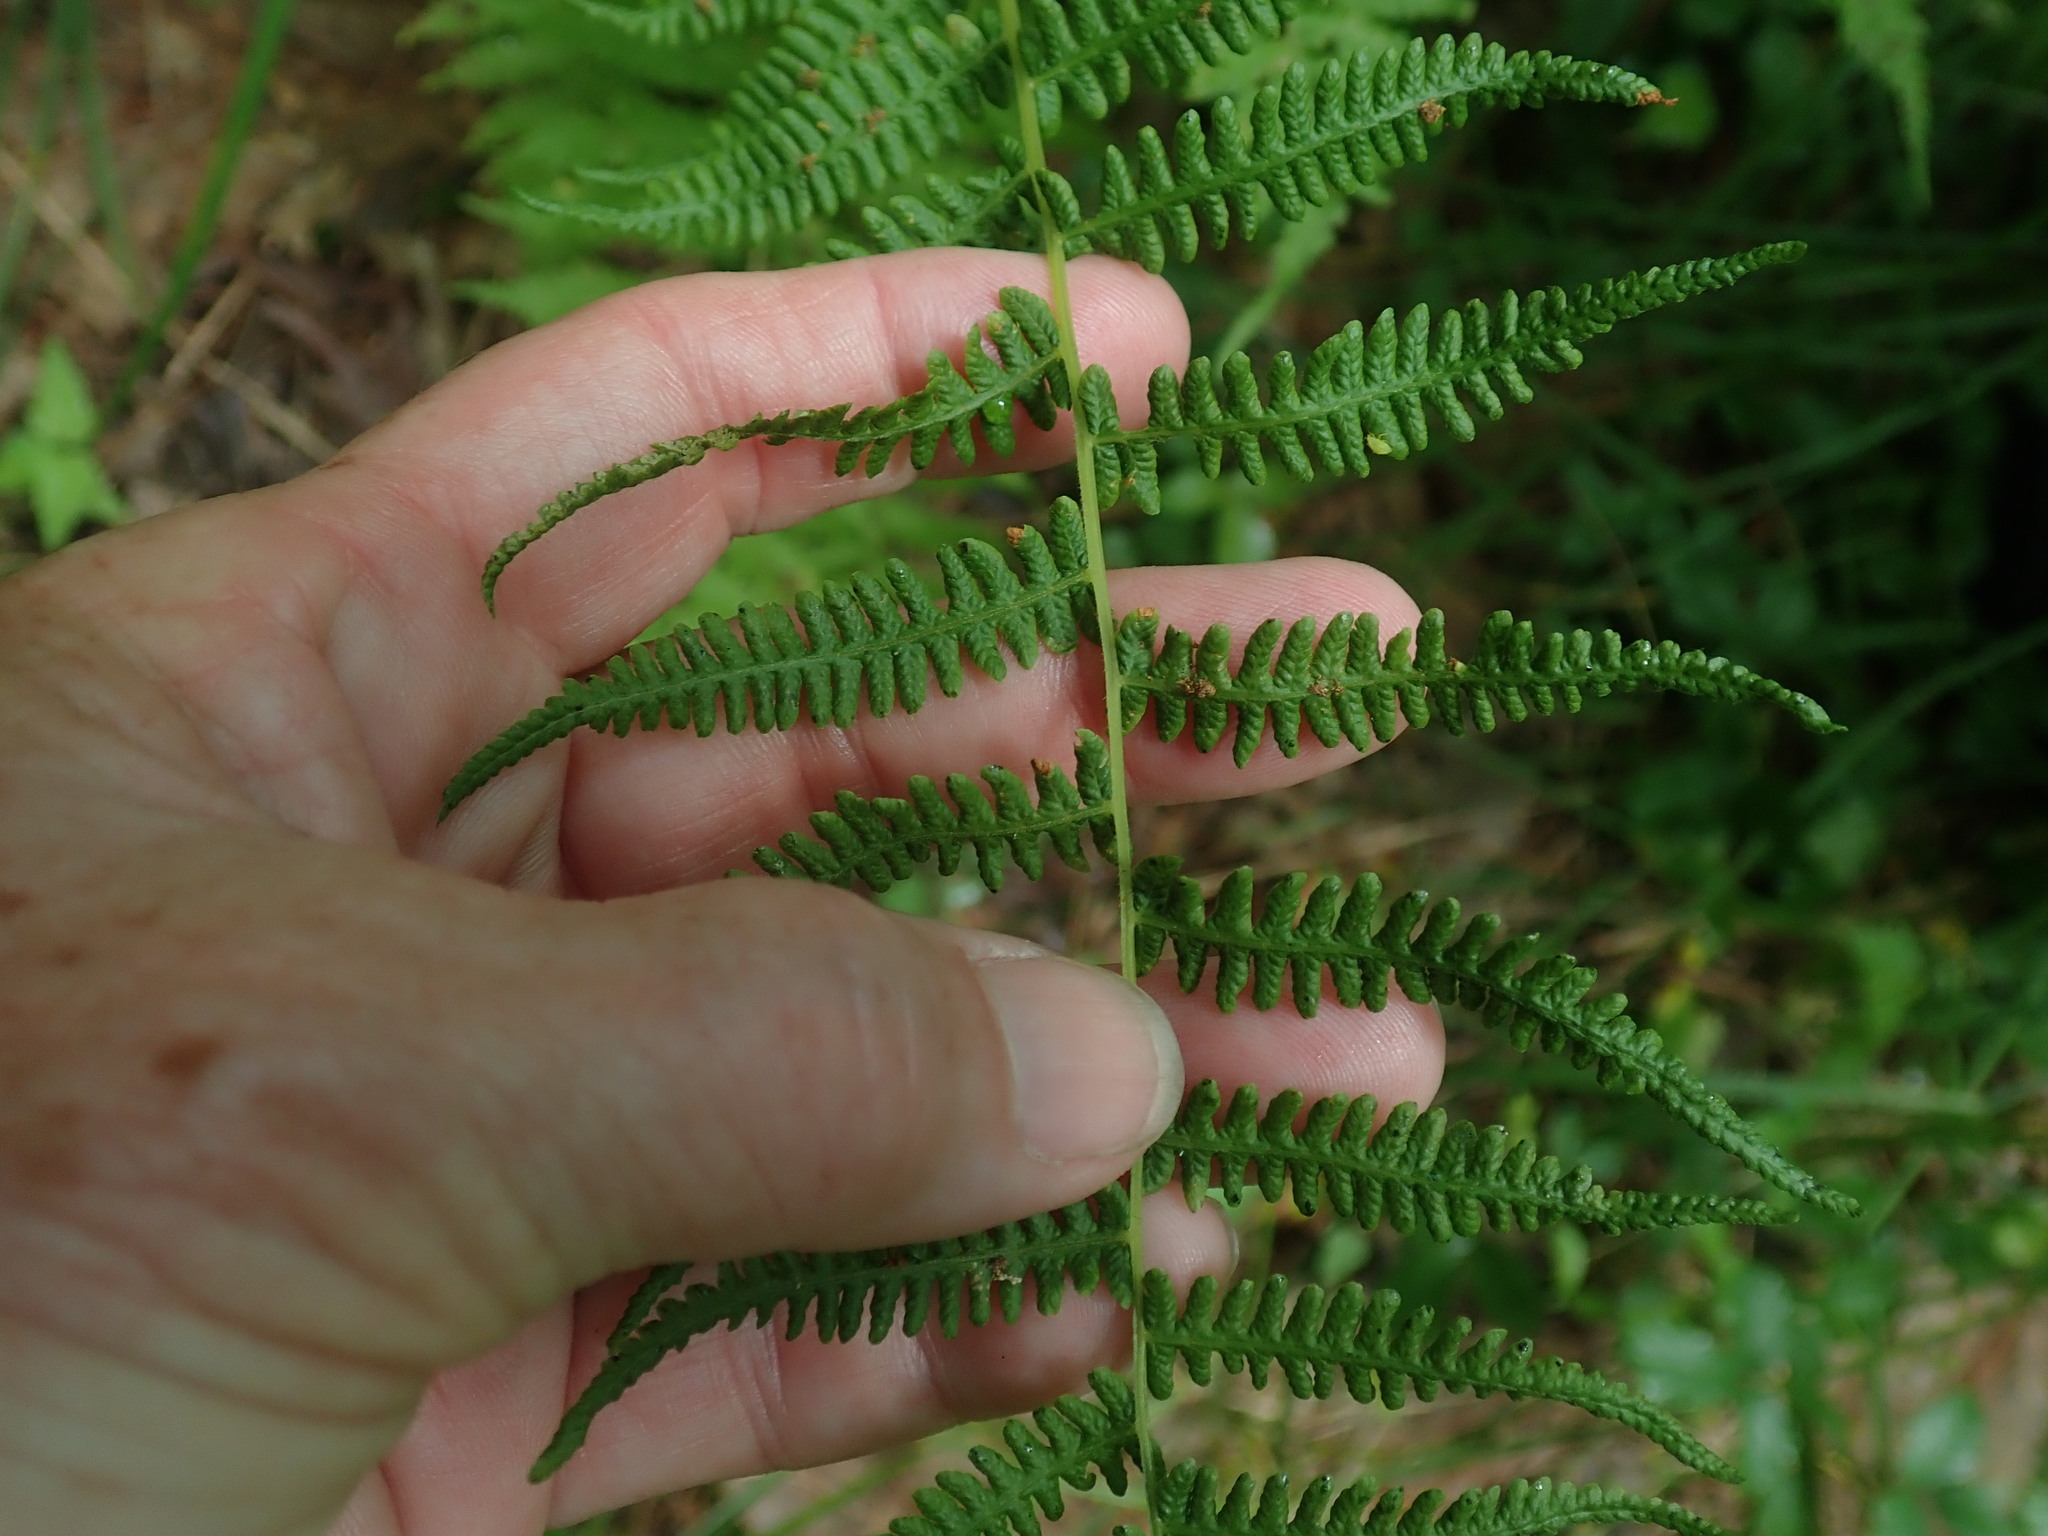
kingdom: Plantae
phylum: Tracheophyta
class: Polypodiopsida
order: Polypodiales
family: Thelypteridaceae
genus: Coryphopteris
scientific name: Coryphopteris simulata
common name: Bog fern
